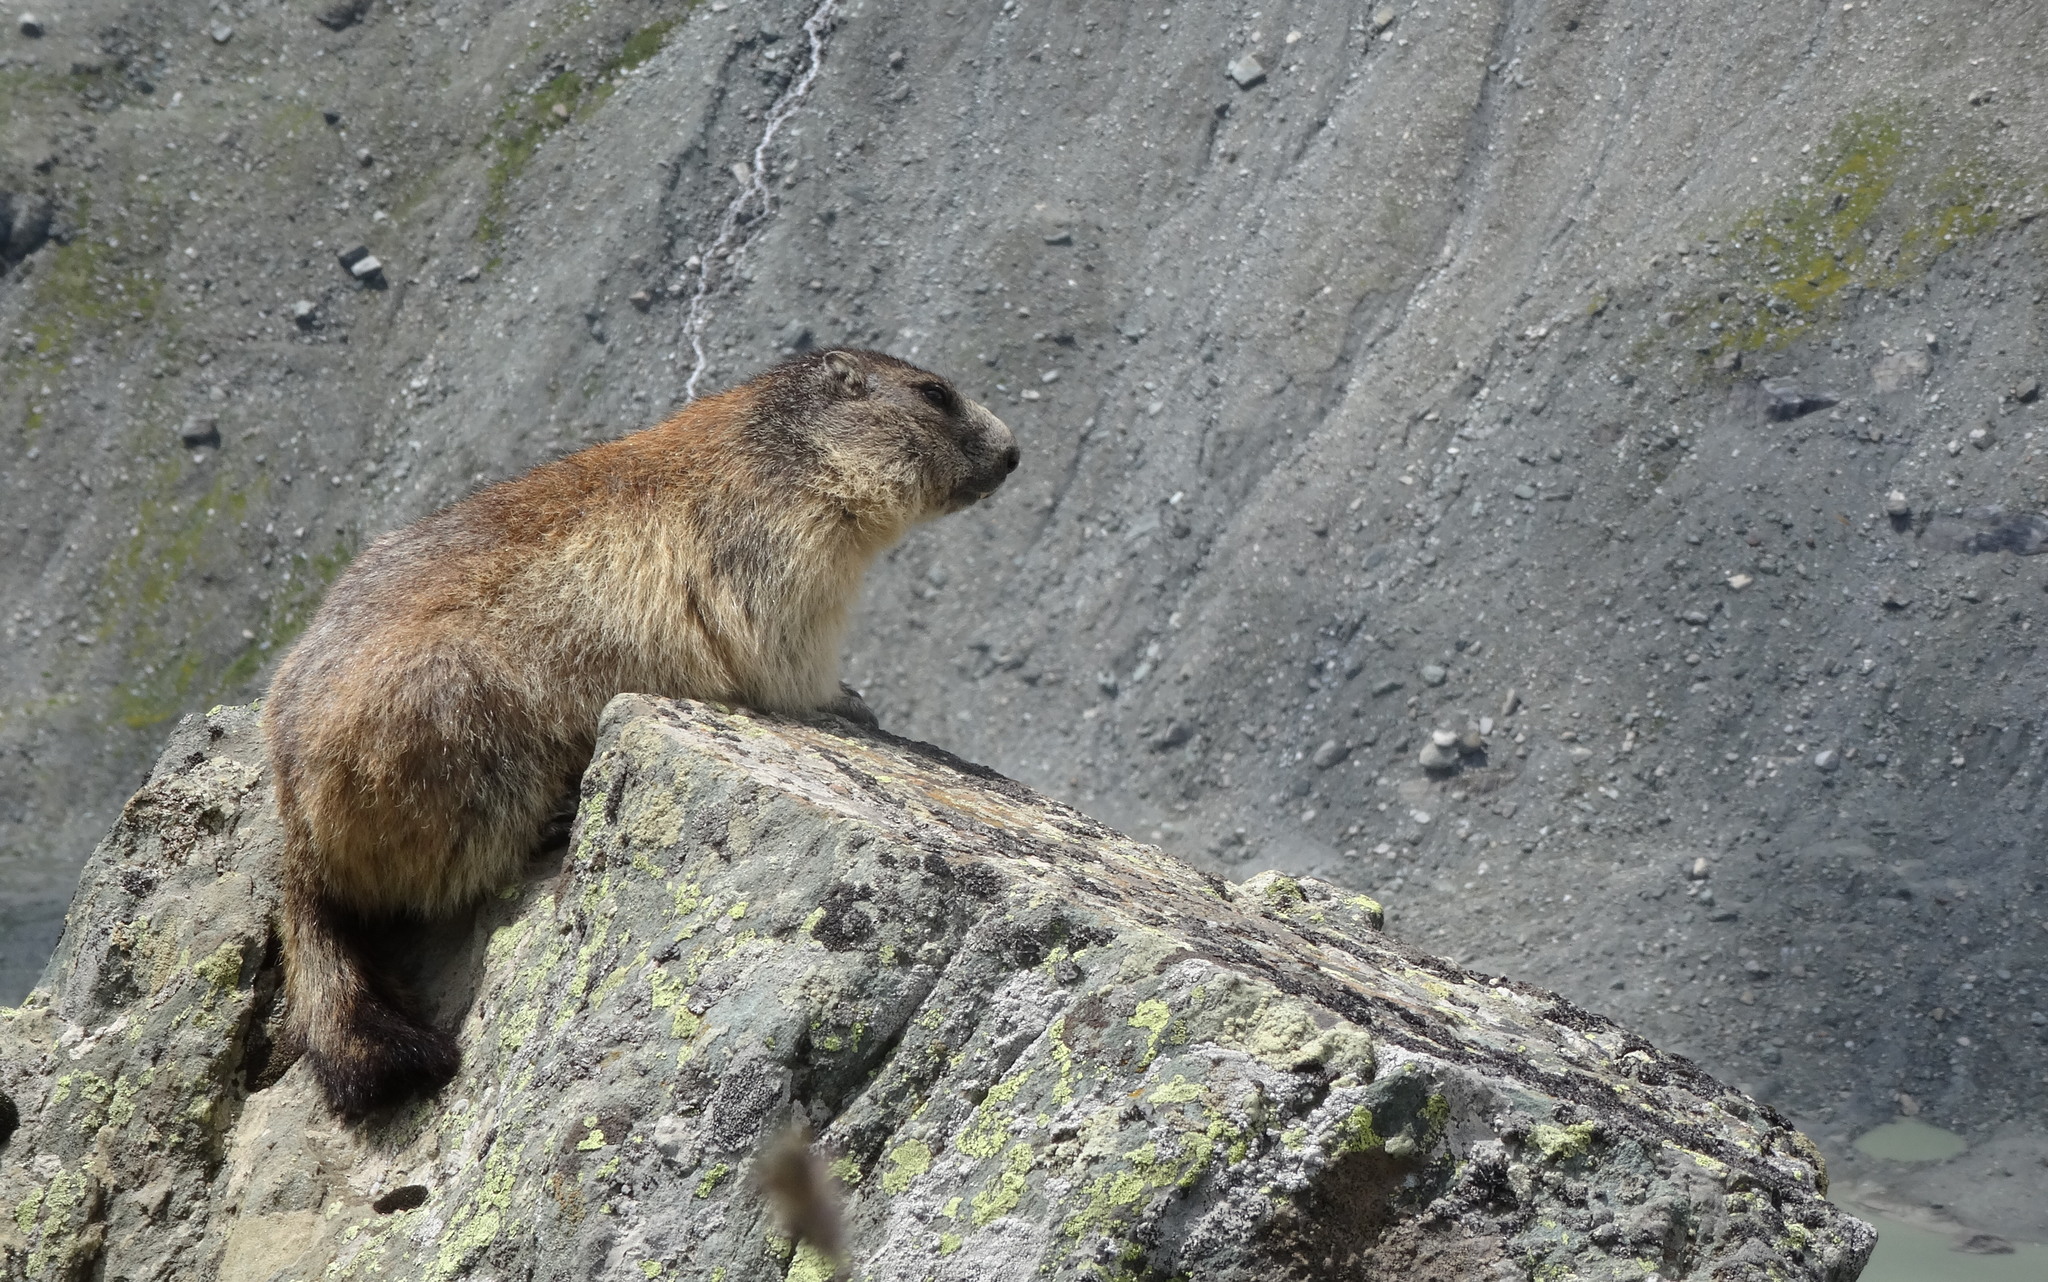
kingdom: Animalia
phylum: Chordata
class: Mammalia
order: Rodentia
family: Sciuridae
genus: Marmota
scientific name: Marmota marmota
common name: Alpine marmot
